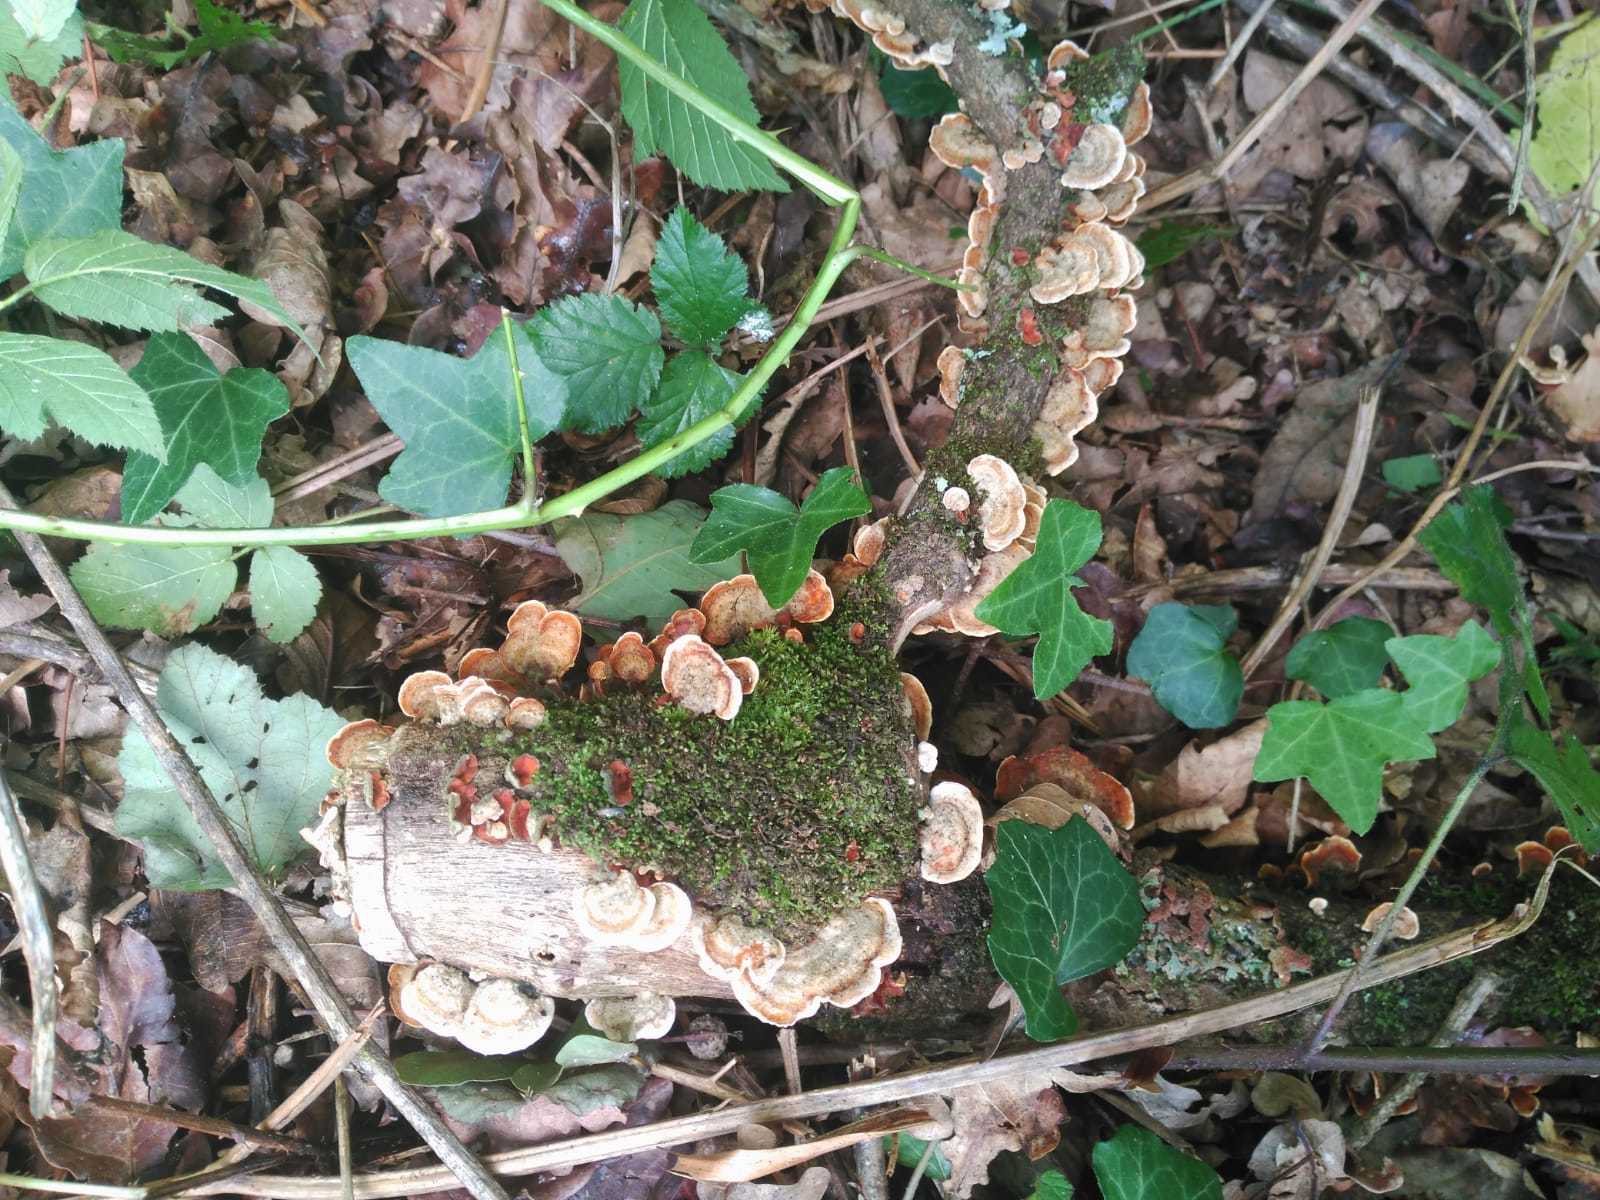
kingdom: Fungi
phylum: Basidiomycota
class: Agaricomycetes
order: Polyporales
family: Polyporaceae
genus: Trametes
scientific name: Trametes versicolor
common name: Turkeytail
